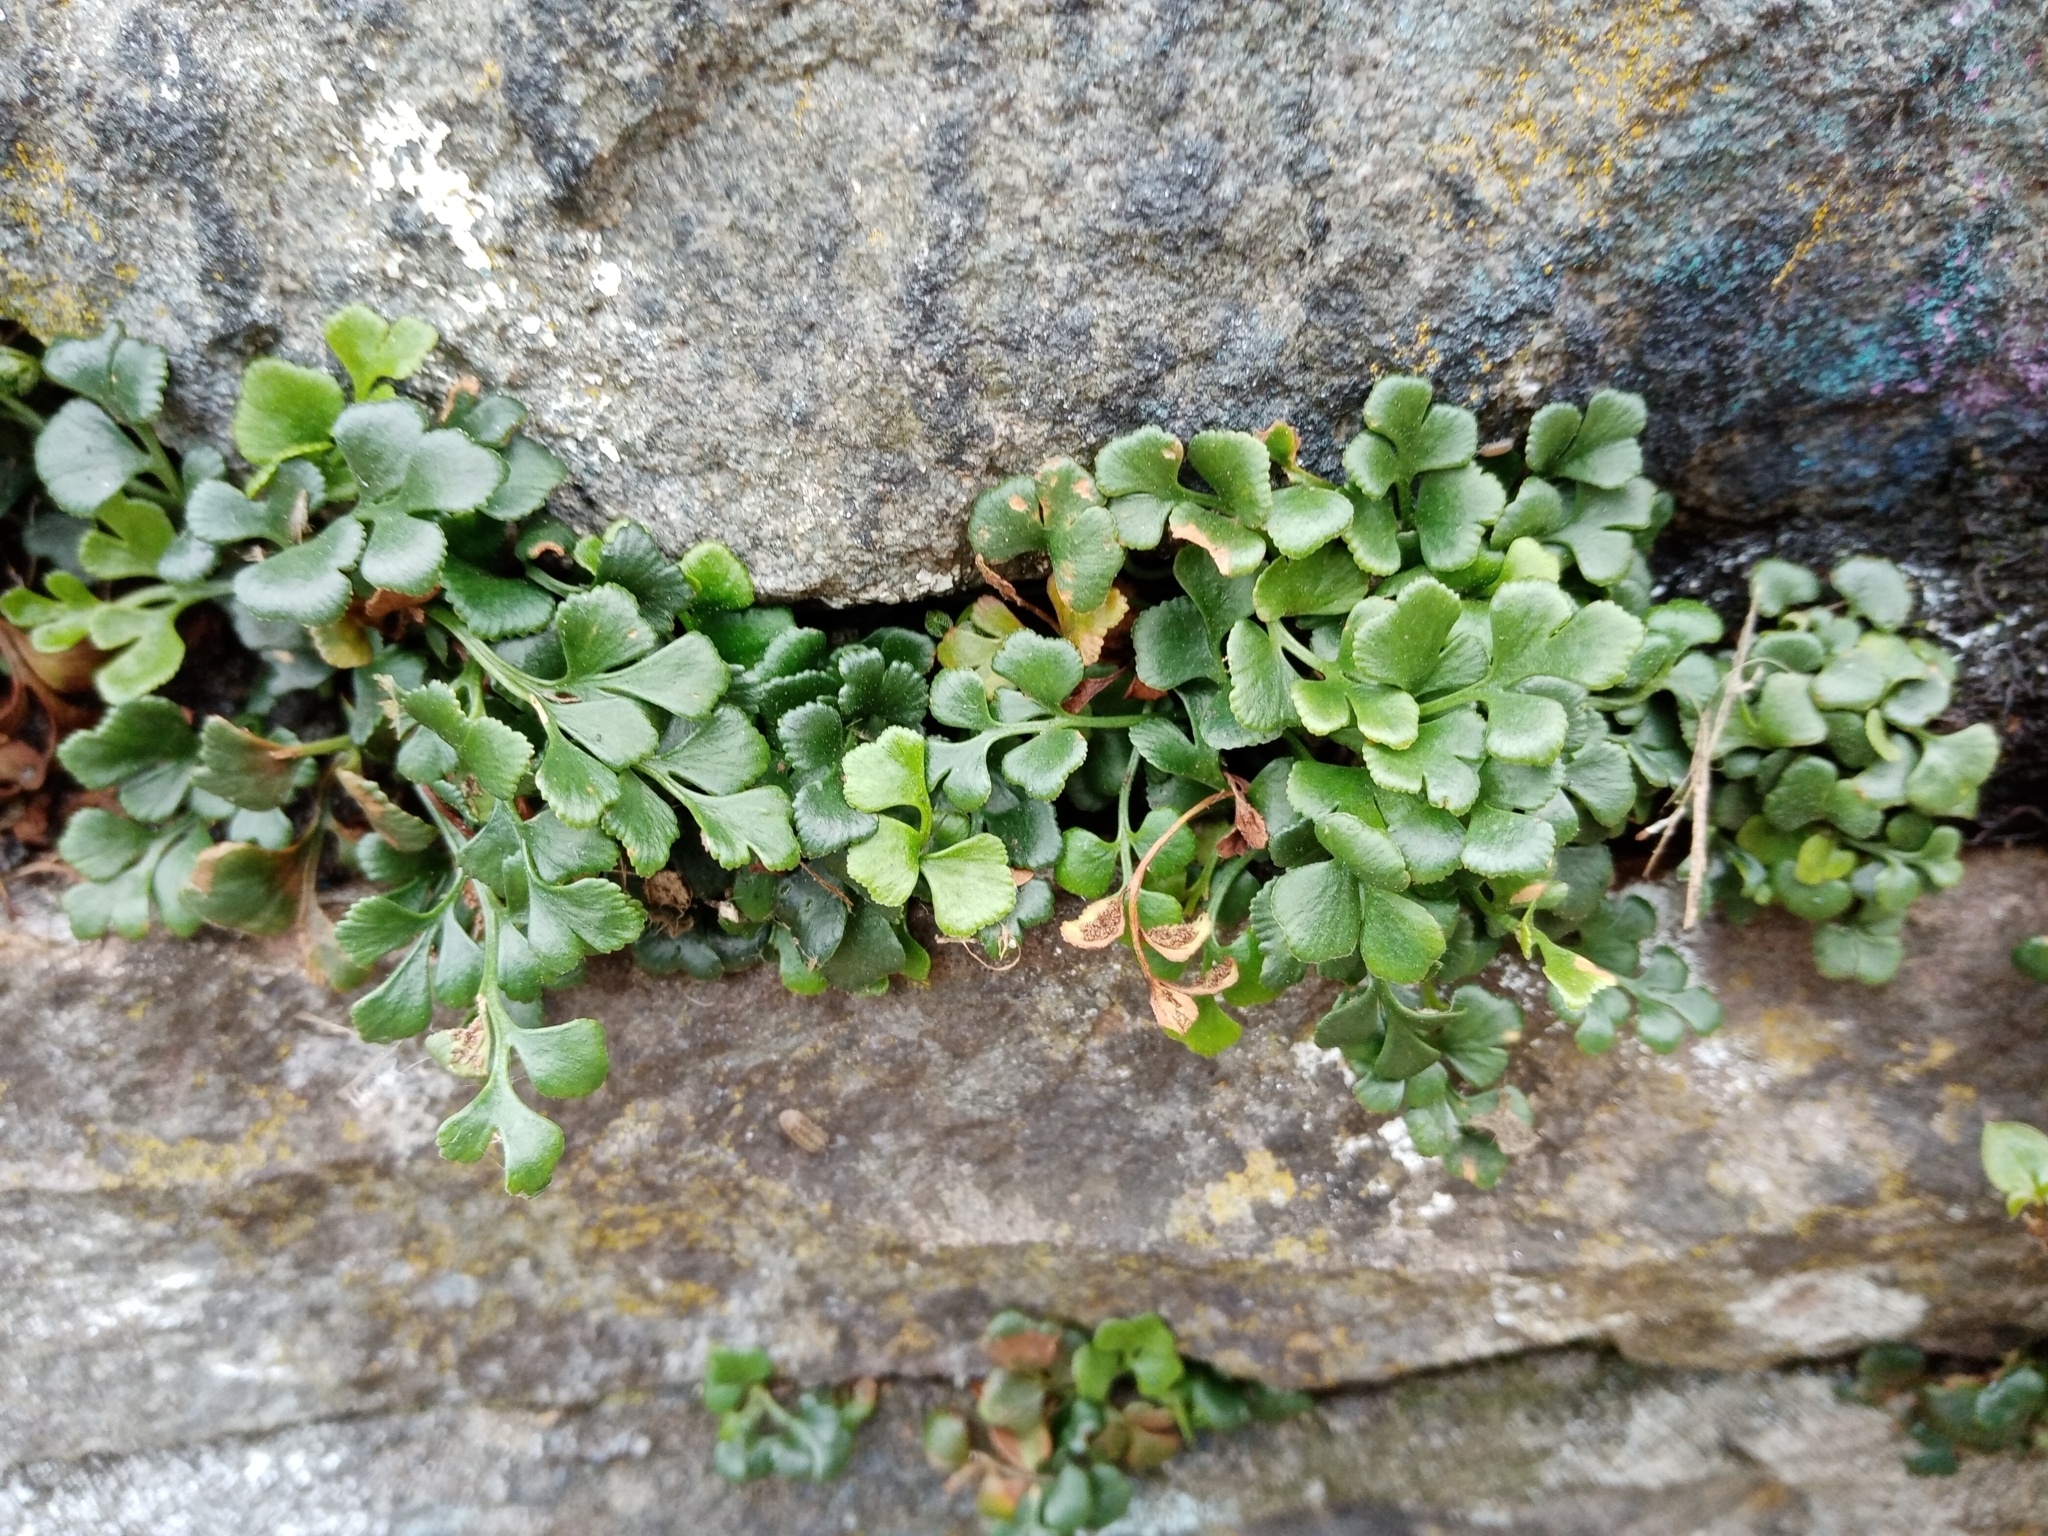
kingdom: Plantae
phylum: Tracheophyta
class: Polypodiopsida
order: Polypodiales
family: Aspleniaceae
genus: Asplenium
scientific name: Asplenium ruta-muraria
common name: Wall-rue
